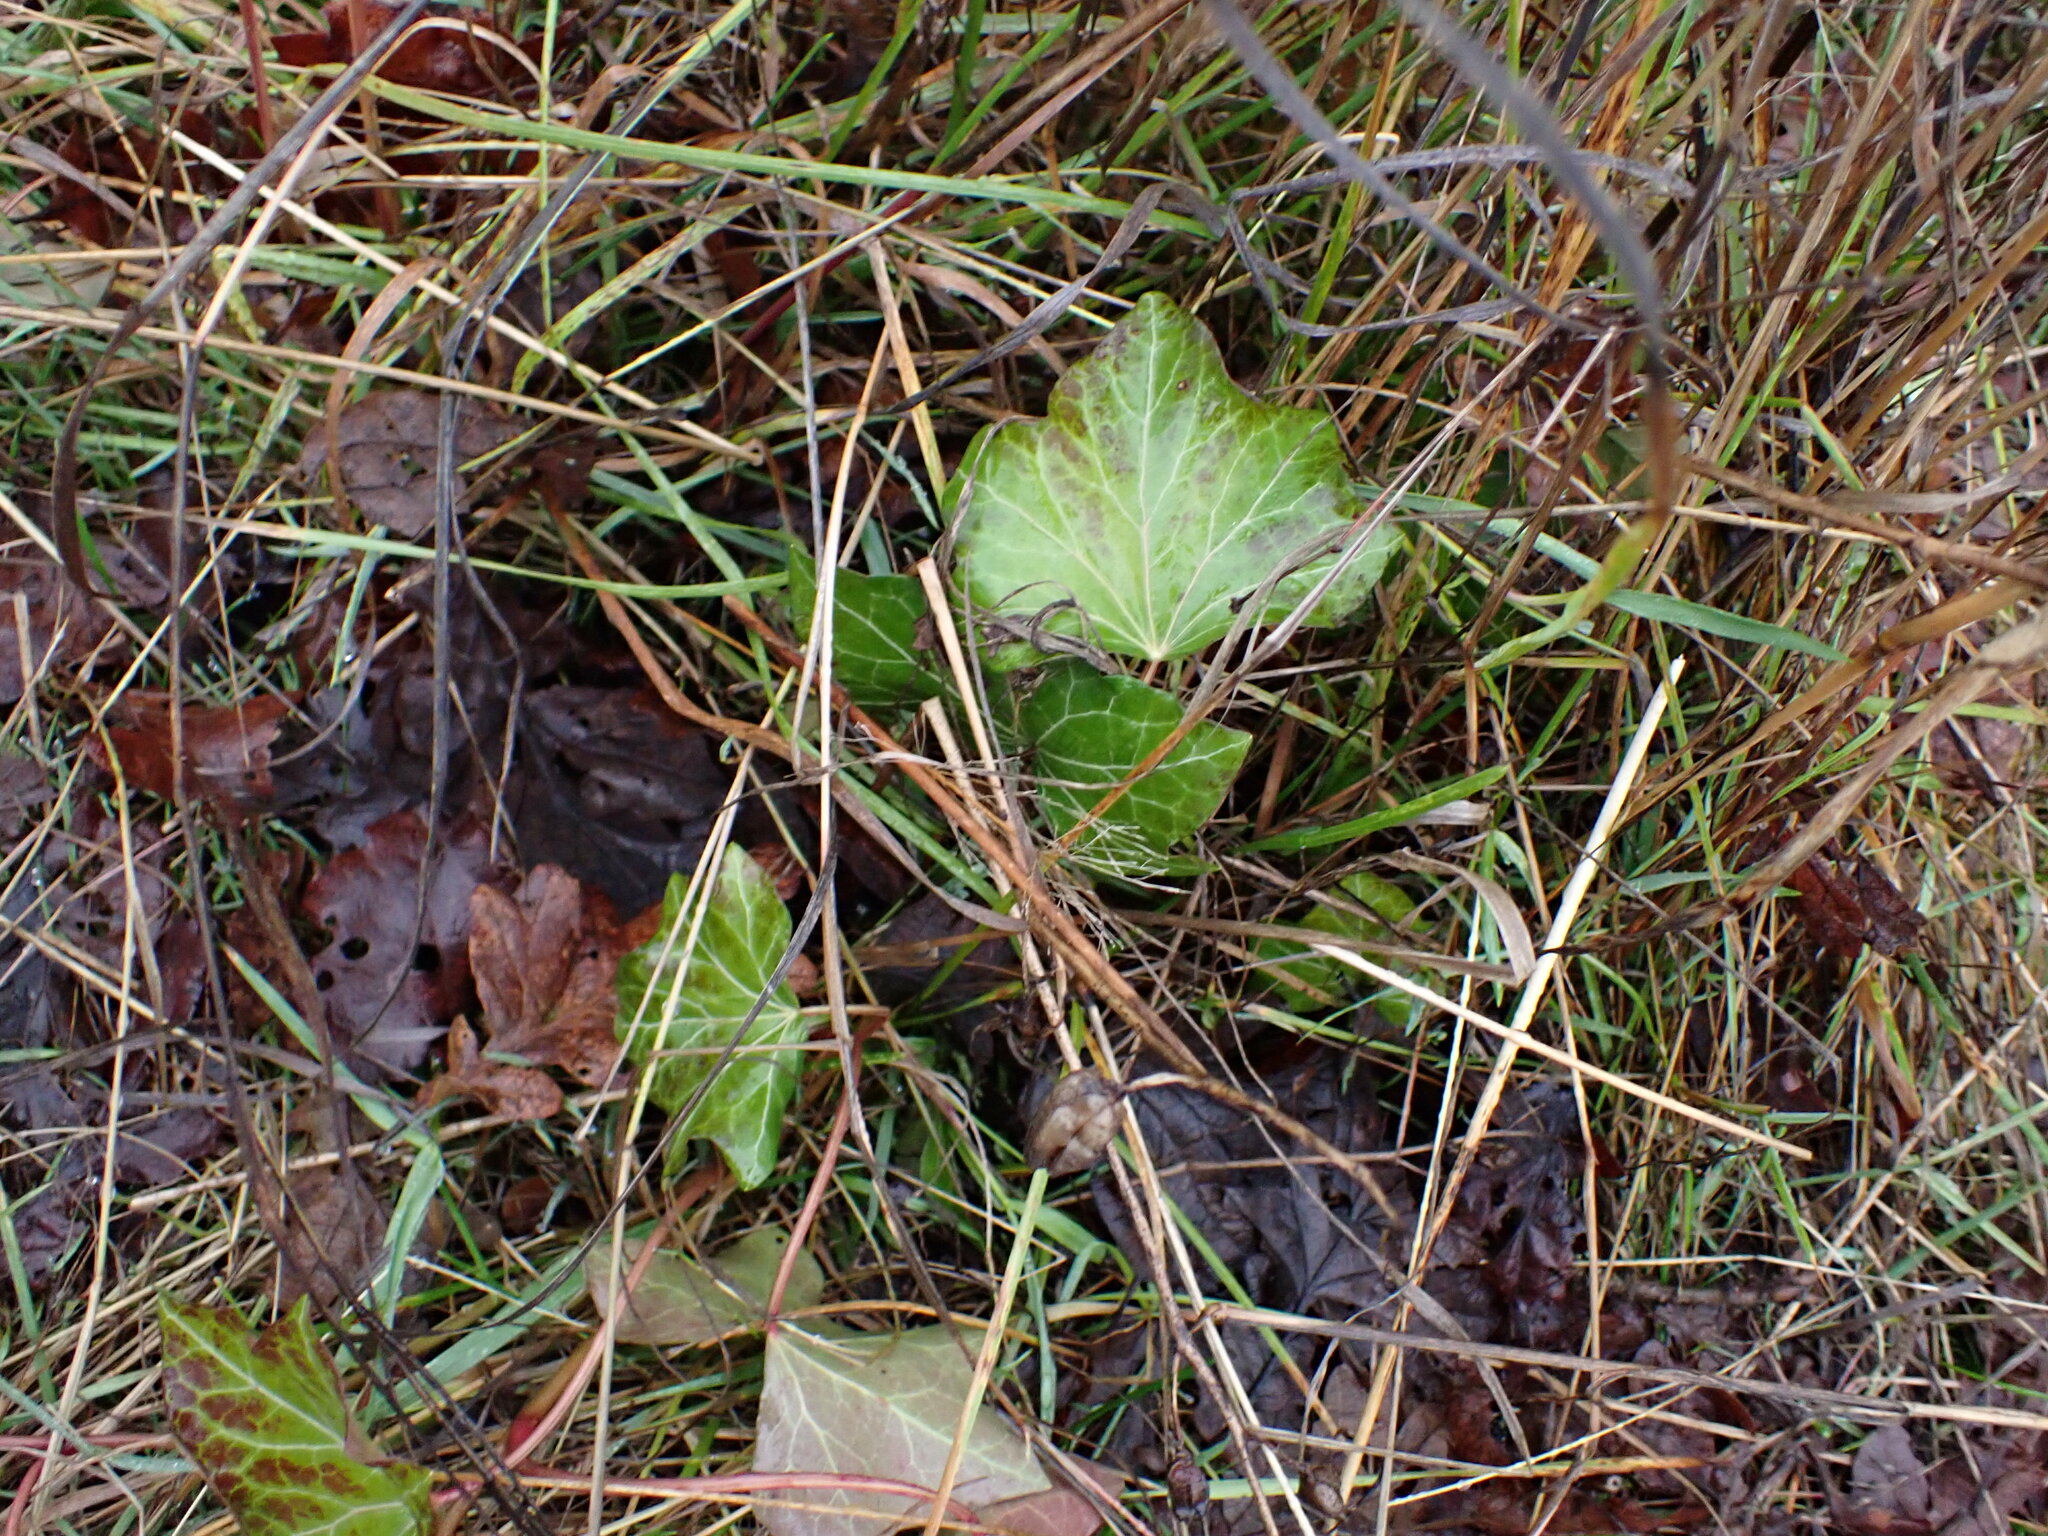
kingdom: Plantae
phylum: Tracheophyta
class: Magnoliopsida
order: Apiales
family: Araliaceae
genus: Hedera
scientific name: Hedera helix
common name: Ivy
